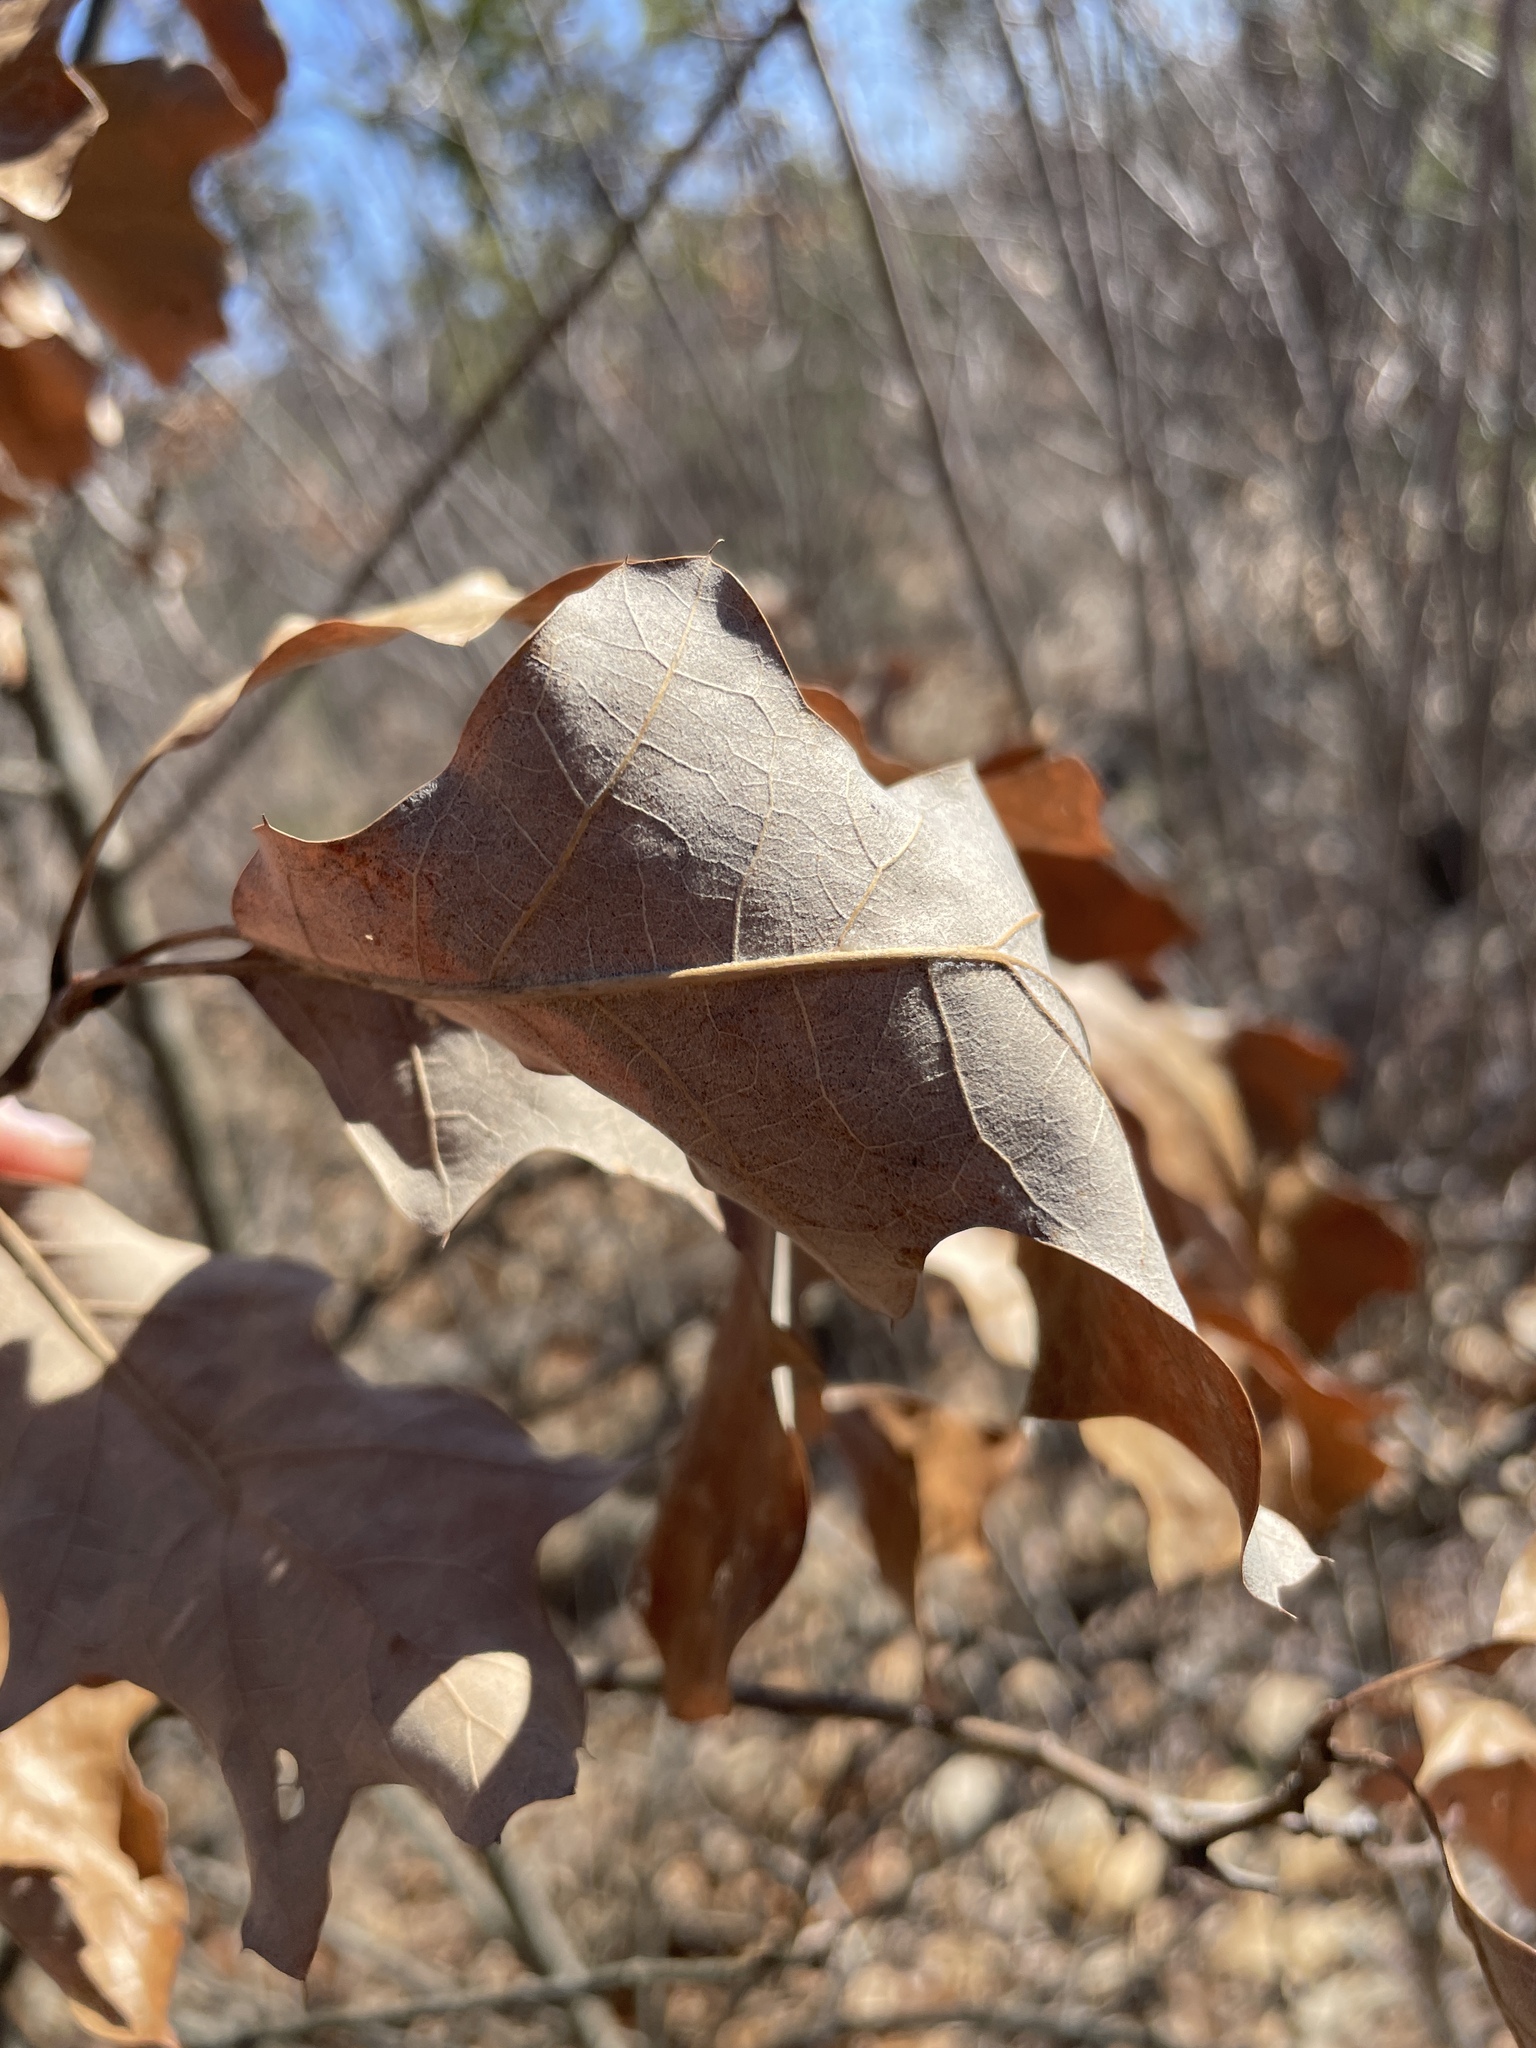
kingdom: Plantae
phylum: Tracheophyta
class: Magnoliopsida
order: Fagales
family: Fagaceae
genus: Quercus
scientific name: Quercus ilicifolia
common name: Bear oak
